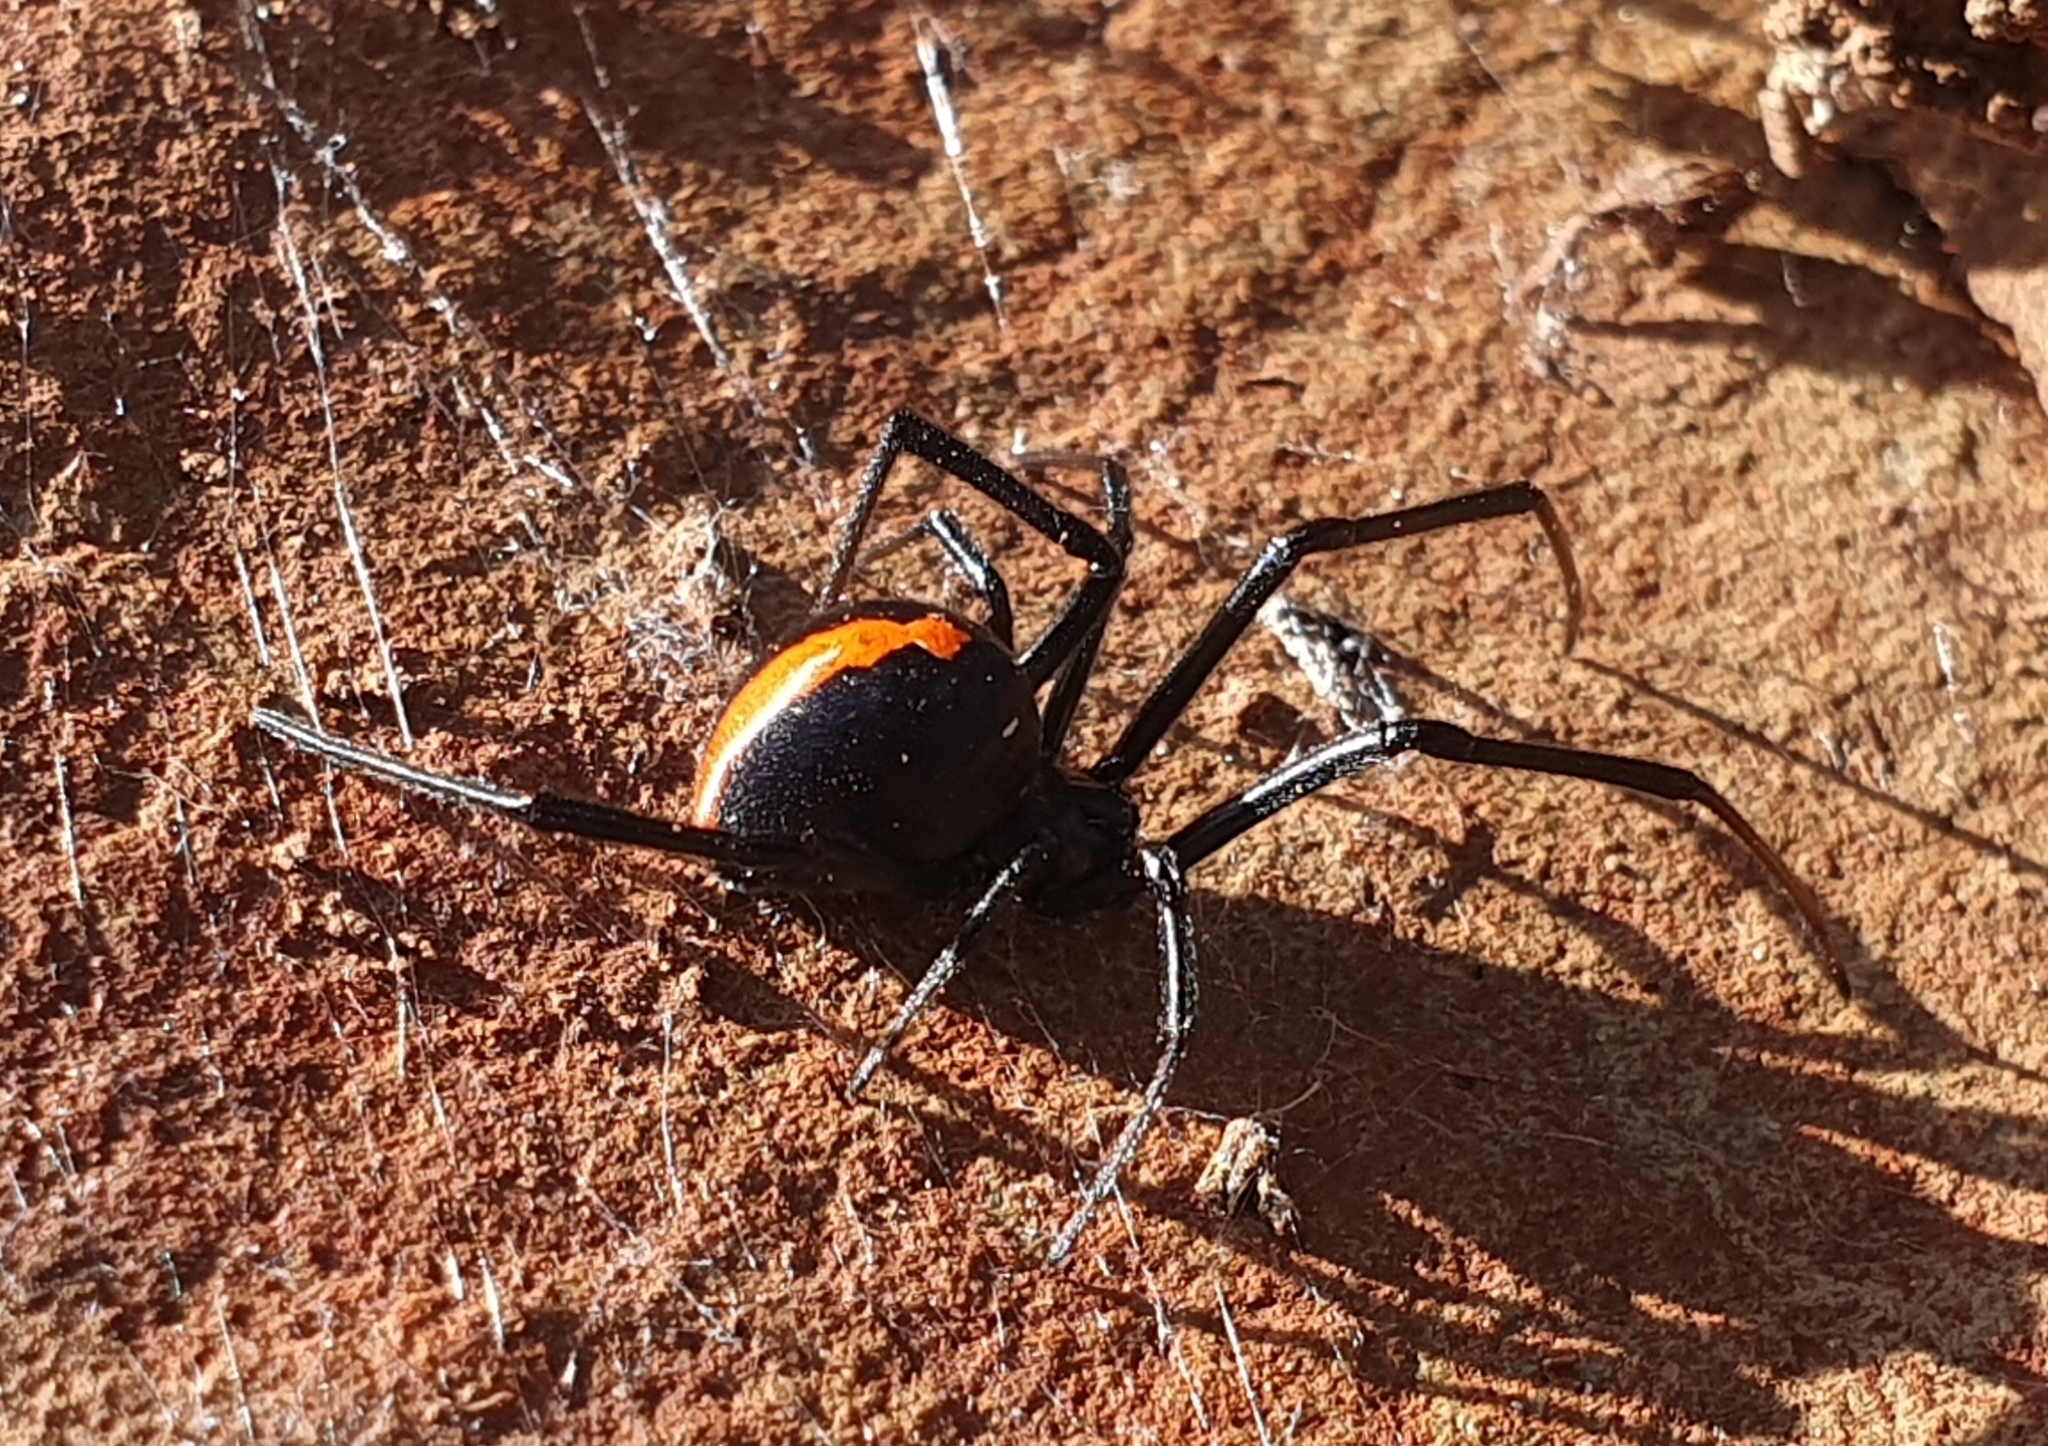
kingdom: Animalia
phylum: Arthropoda
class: Arachnida
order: Araneae
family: Theridiidae
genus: Latrodectus
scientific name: Latrodectus hasselti
